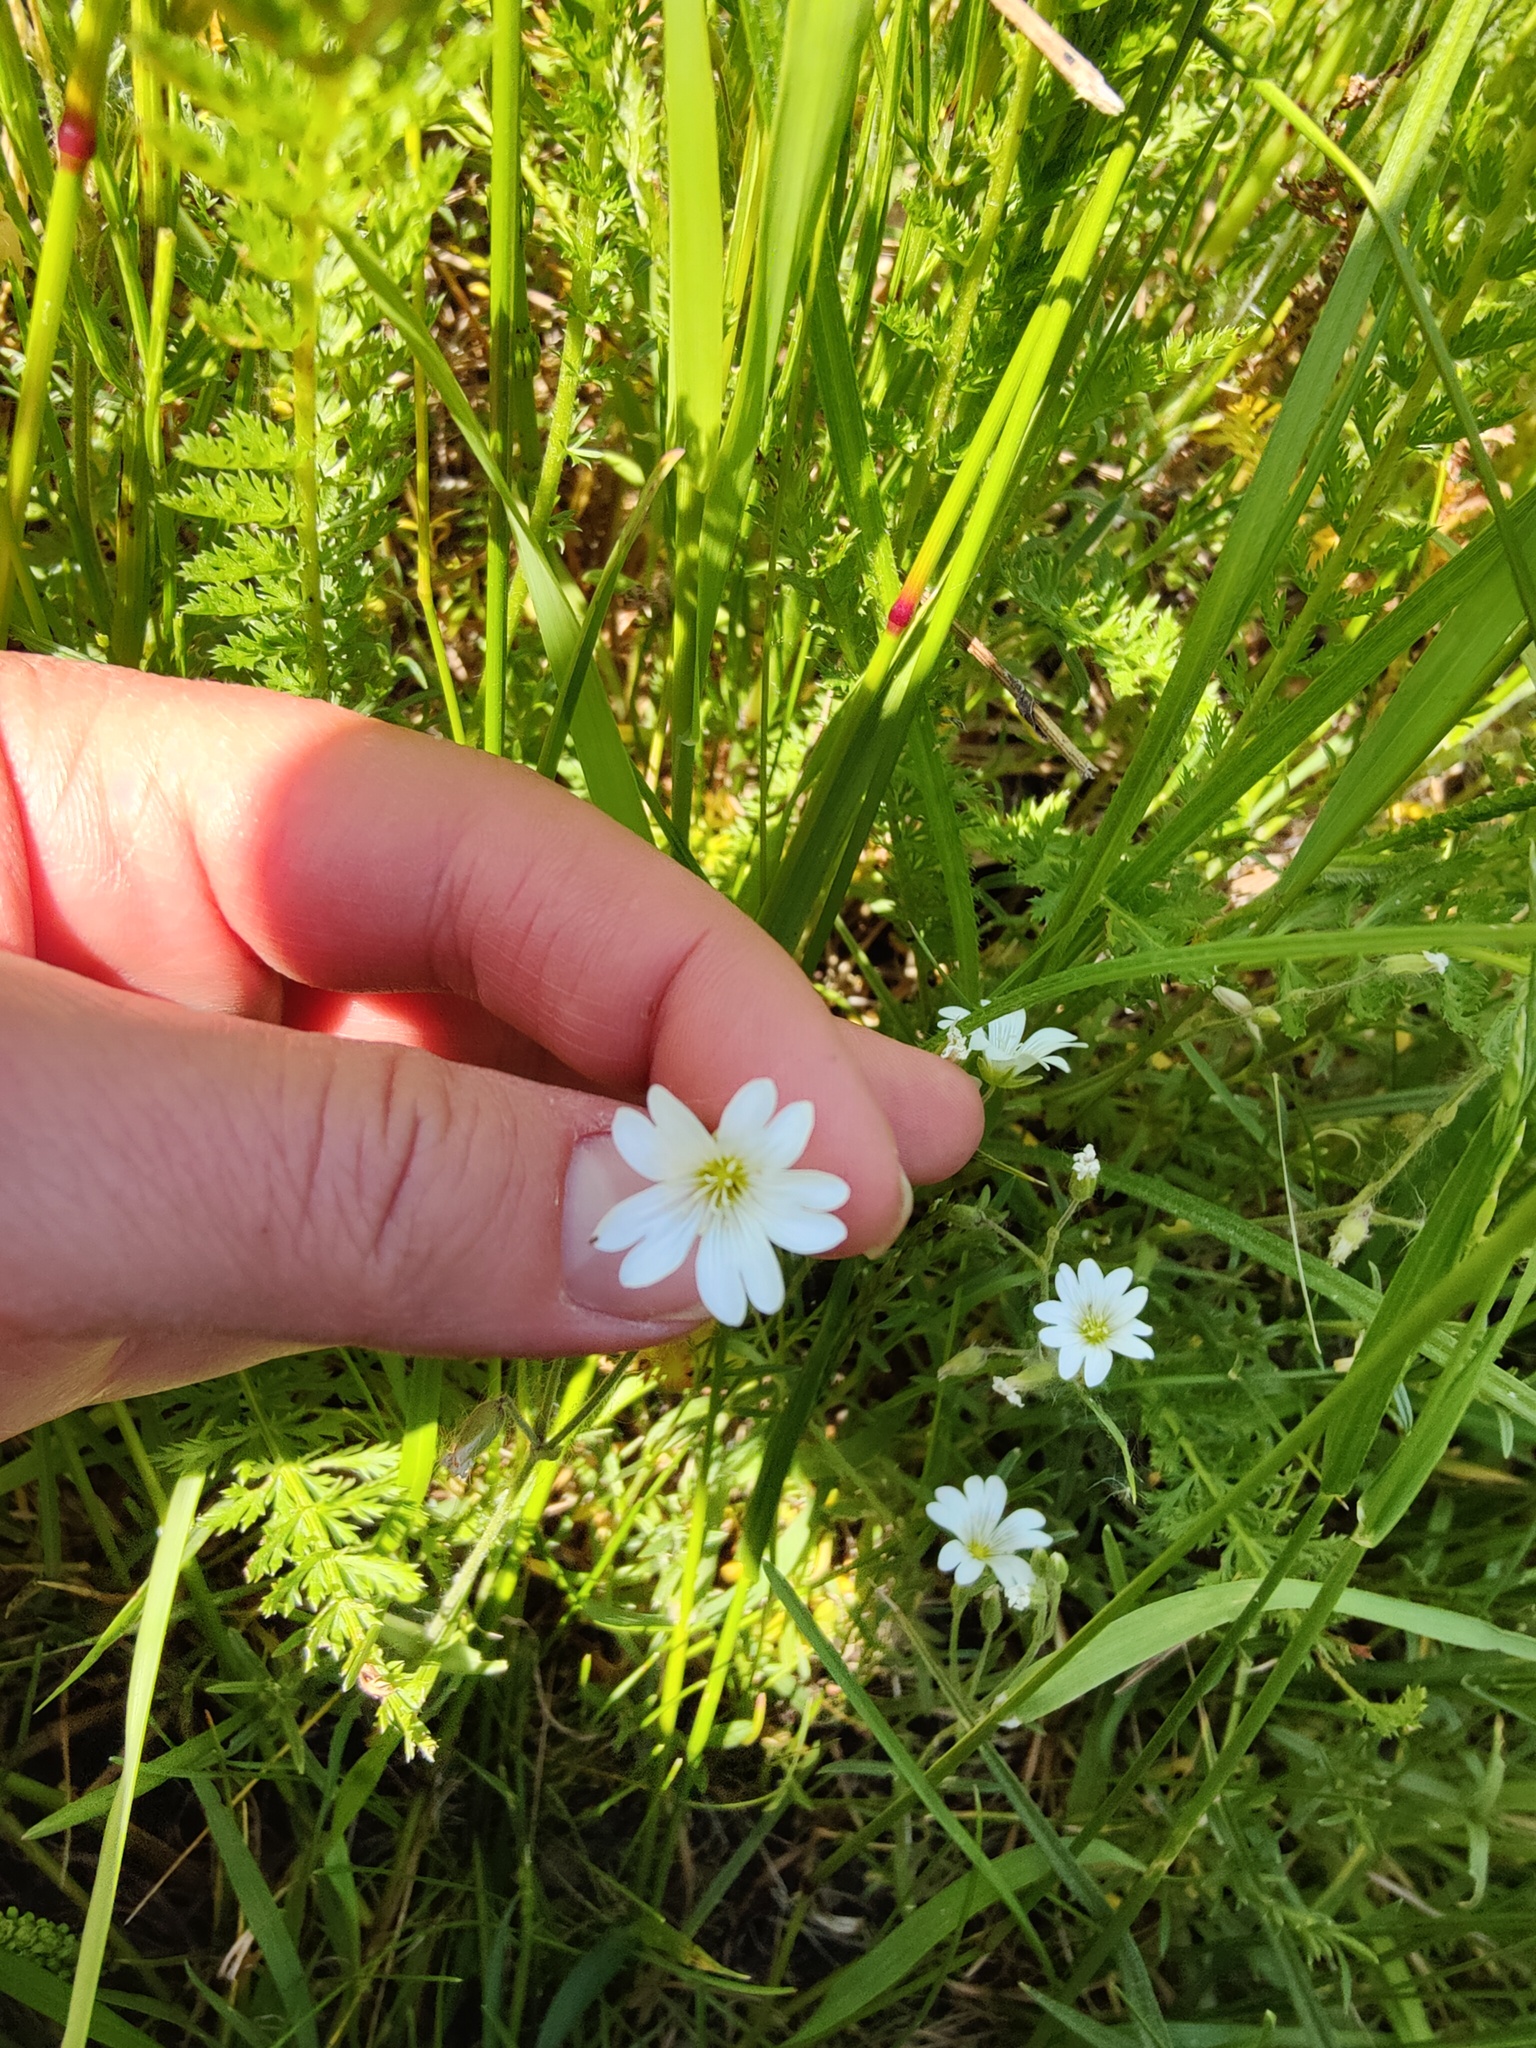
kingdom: Plantae
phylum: Tracheophyta
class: Magnoliopsida
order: Caryophyllales
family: Caryophyllaceae
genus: Cerastium
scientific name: Cerastium arvense
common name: Field mouse-ear
